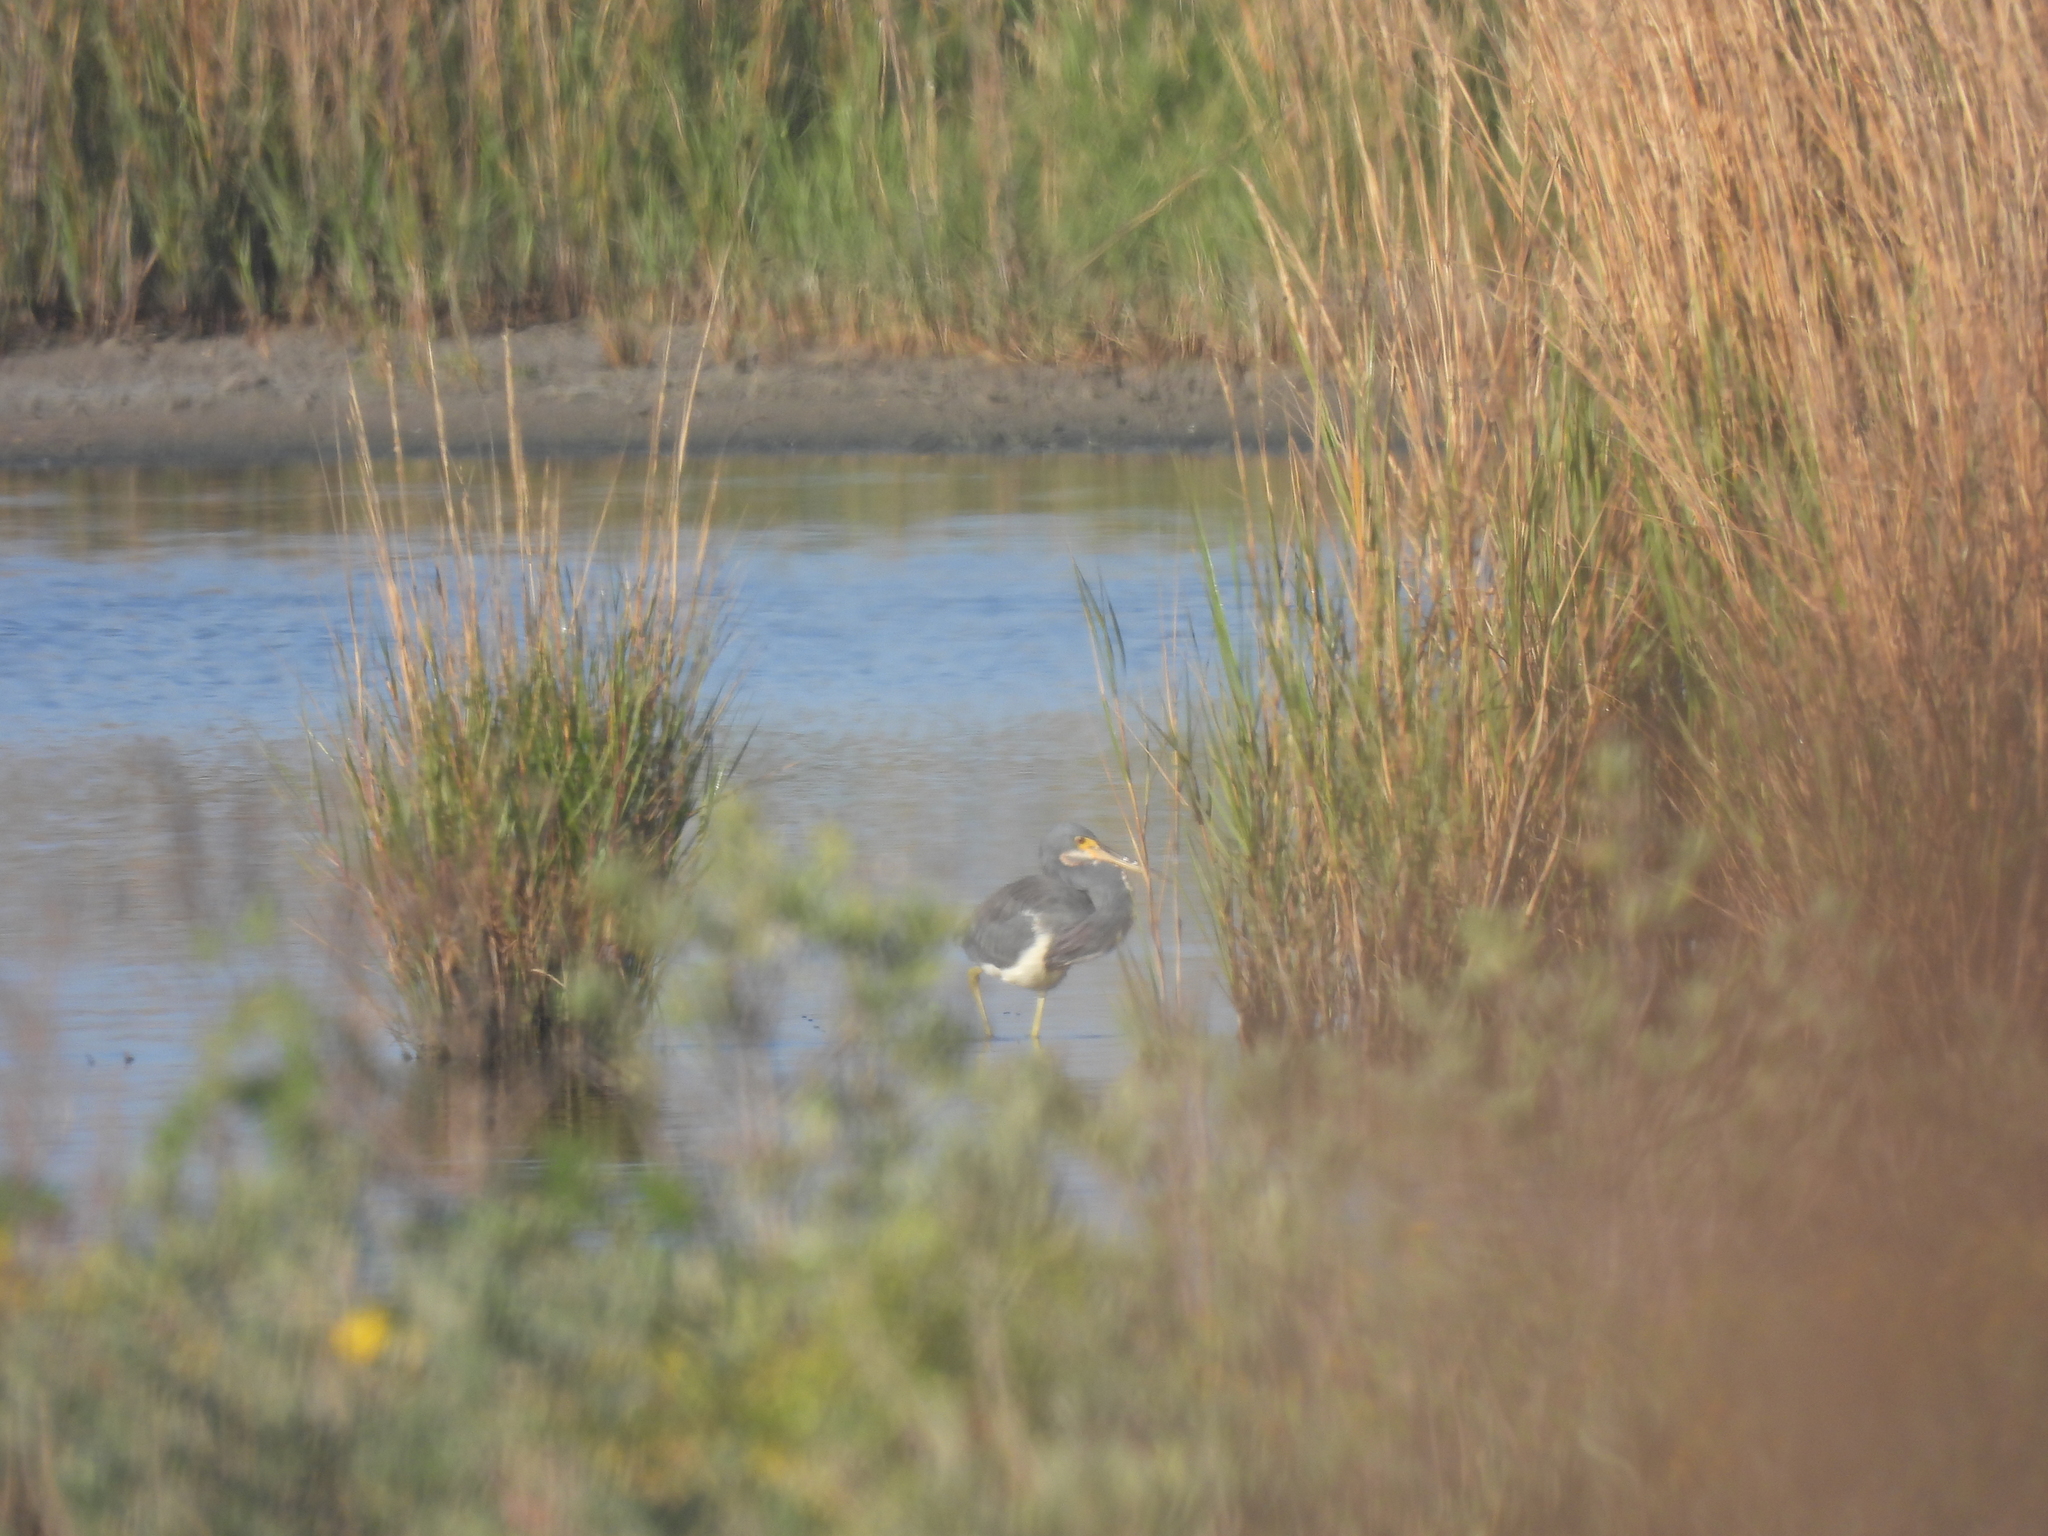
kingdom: Animalia
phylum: Chordata
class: Aves
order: Pelecaniformes
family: Ardeidae
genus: Egretta
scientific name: Egretta tricolor
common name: Tricolored heron
